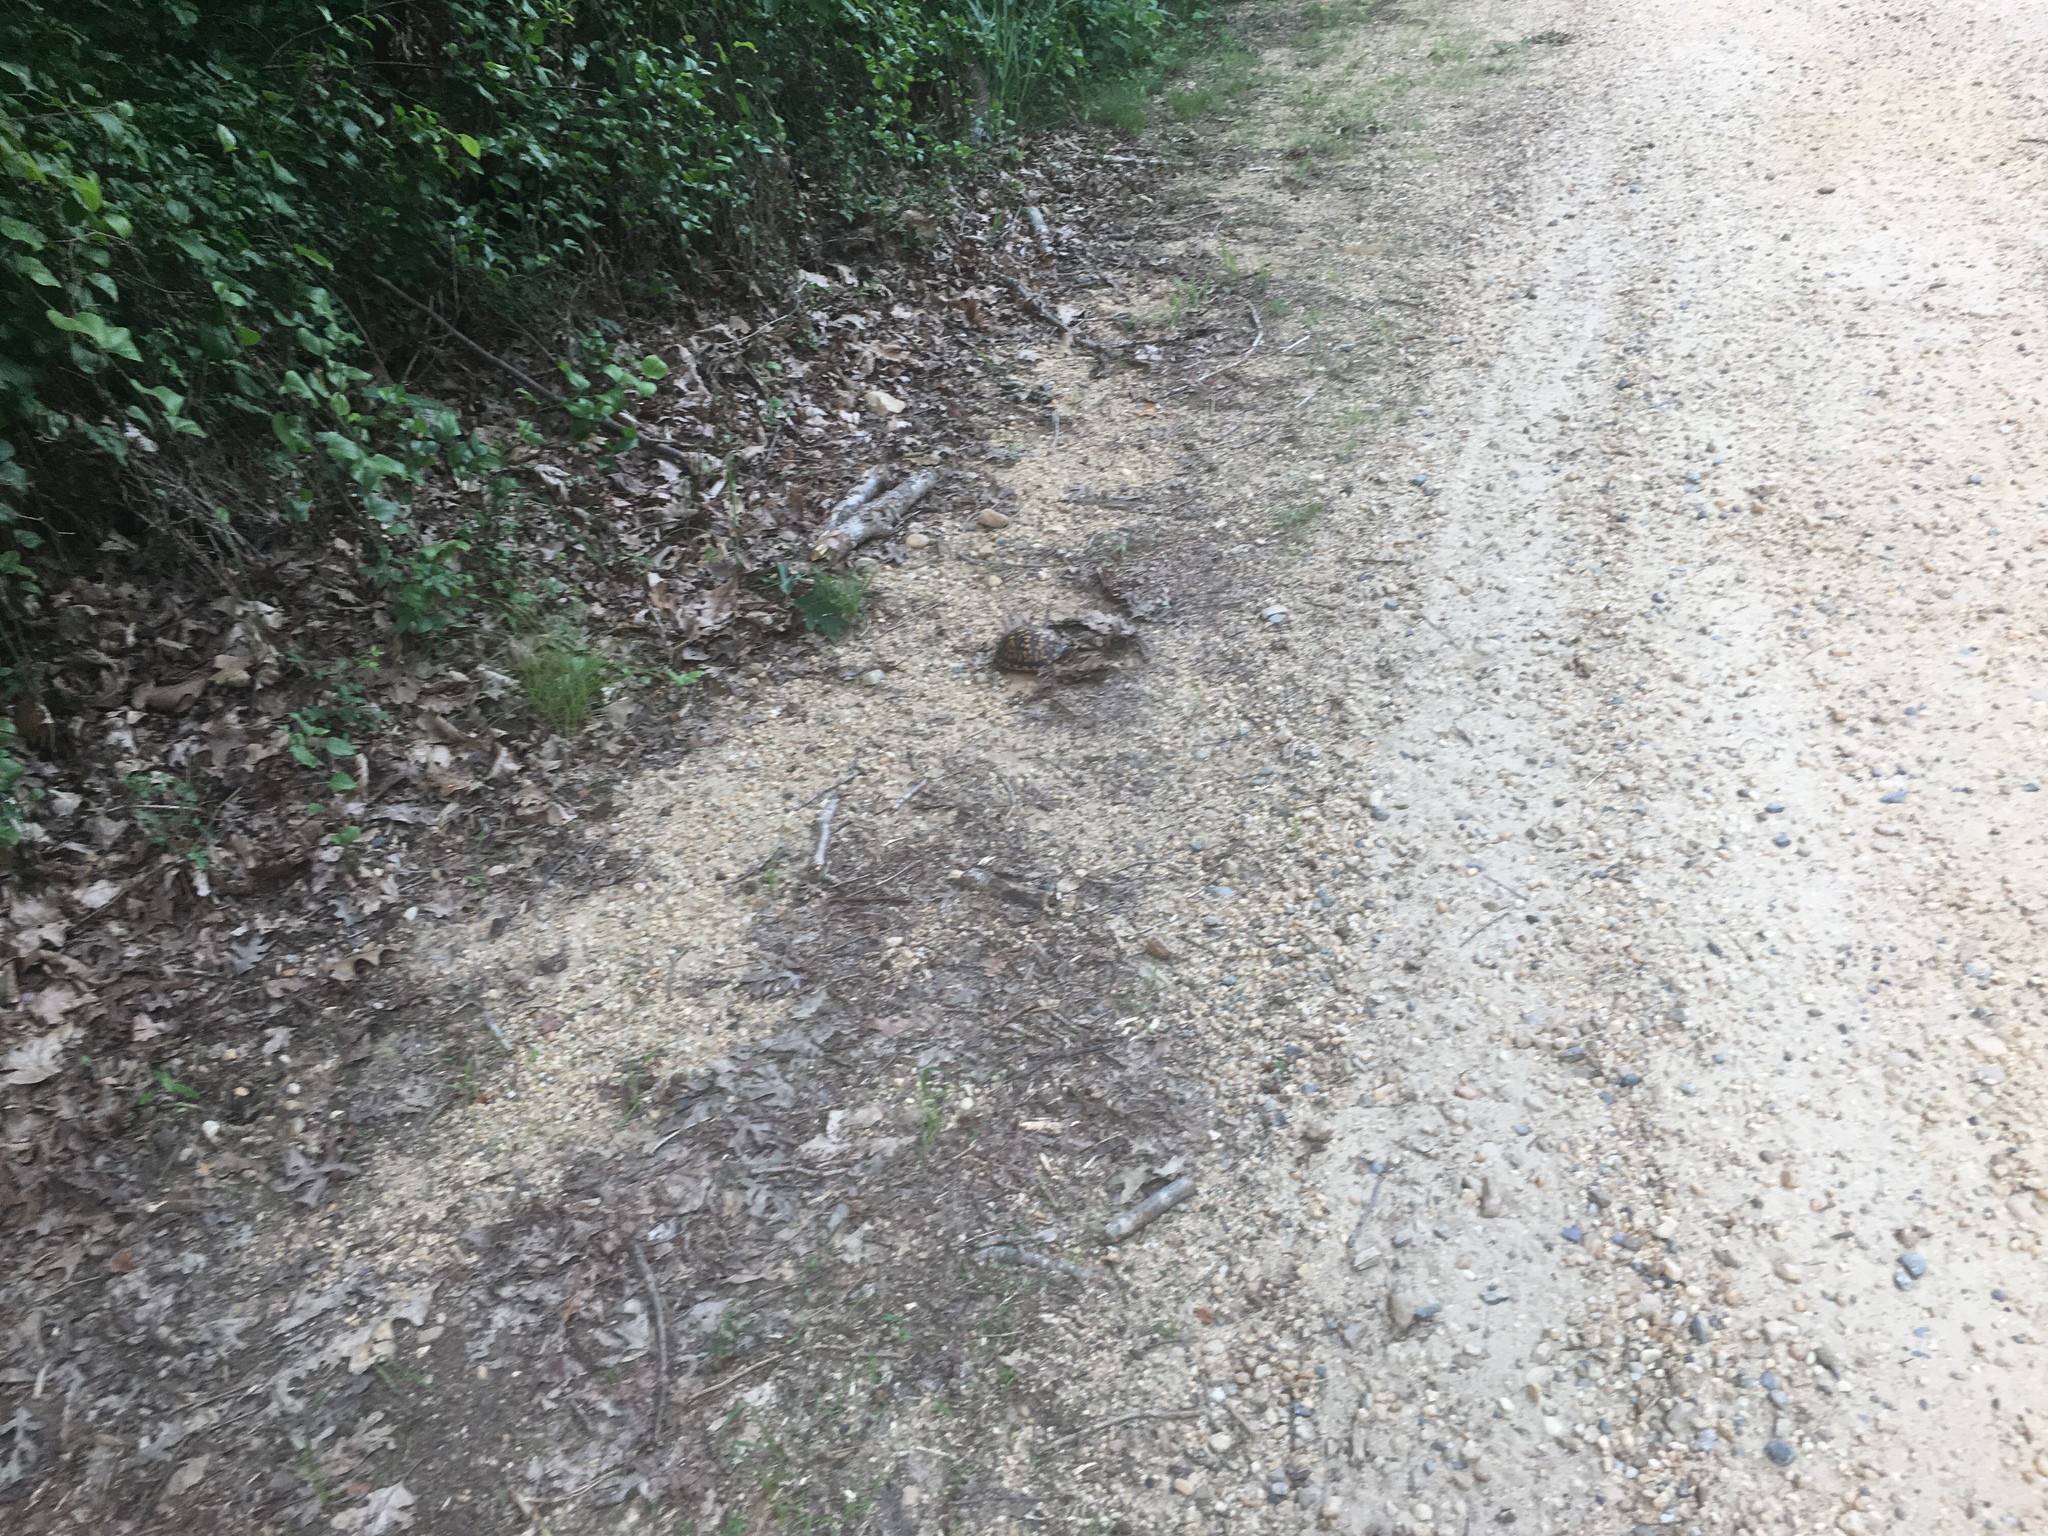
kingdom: Animalia
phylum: Chordata
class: Testudines
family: Emydidae
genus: Terrapene
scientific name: Terrapene carolina
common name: Common box turtle
